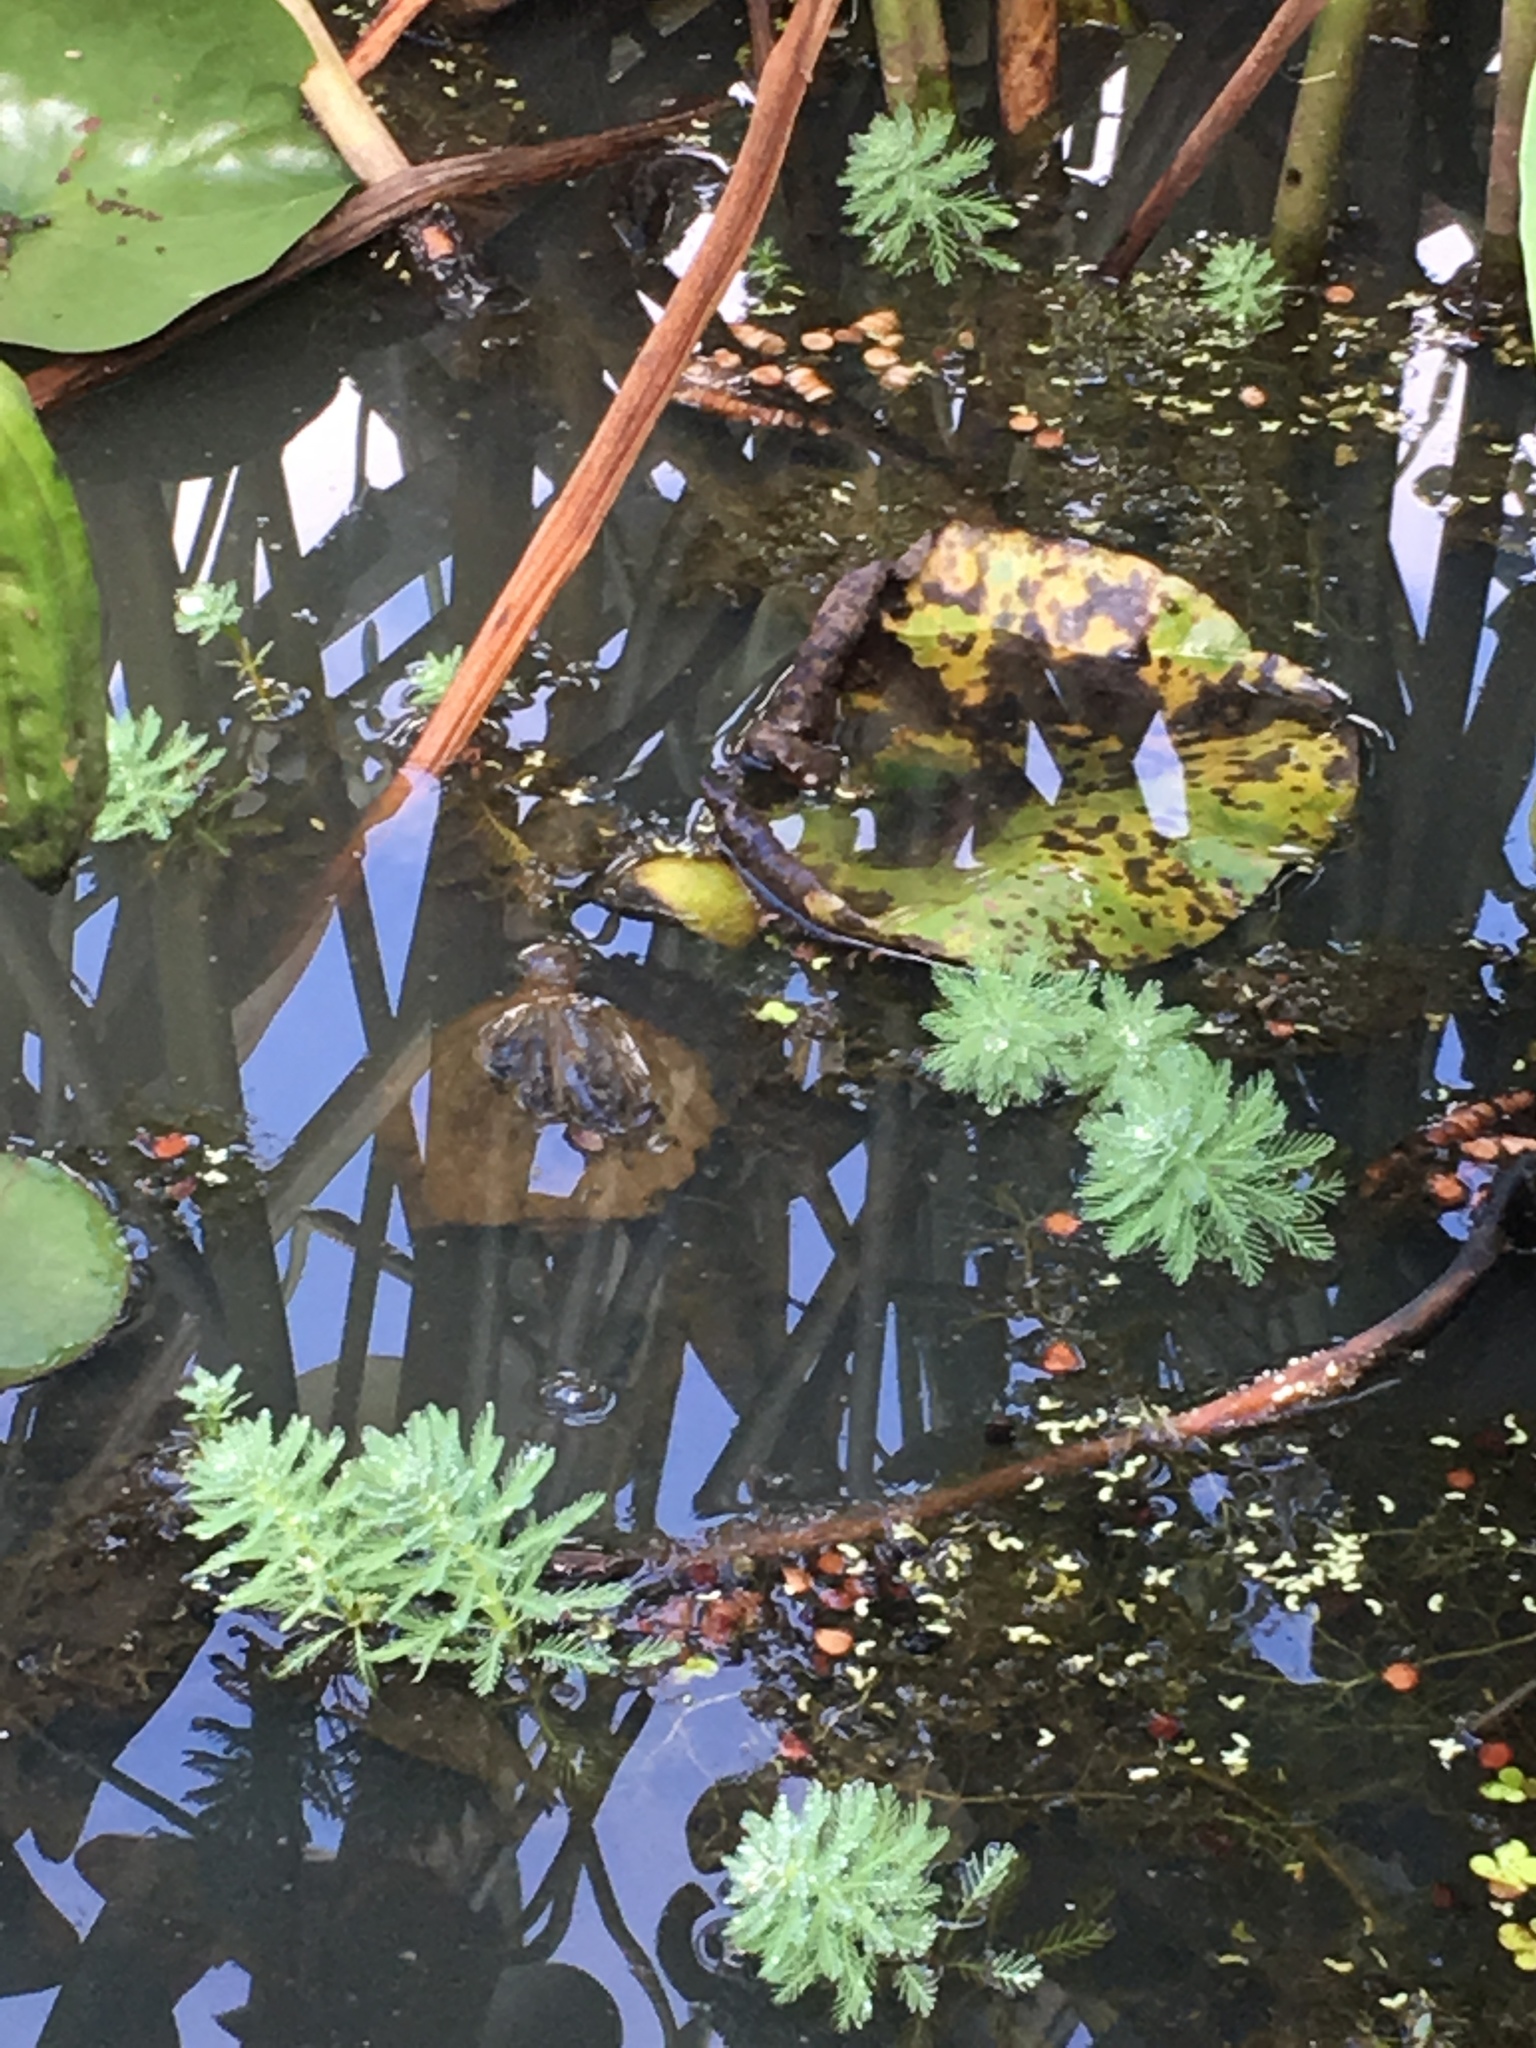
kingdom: Plantae
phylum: Tracheophyta
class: Magnoliopsida
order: Saxifragales
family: Haloragaceae
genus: Myriophyllum
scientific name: Myriophyllum aquaticum
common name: Parrot's feather
